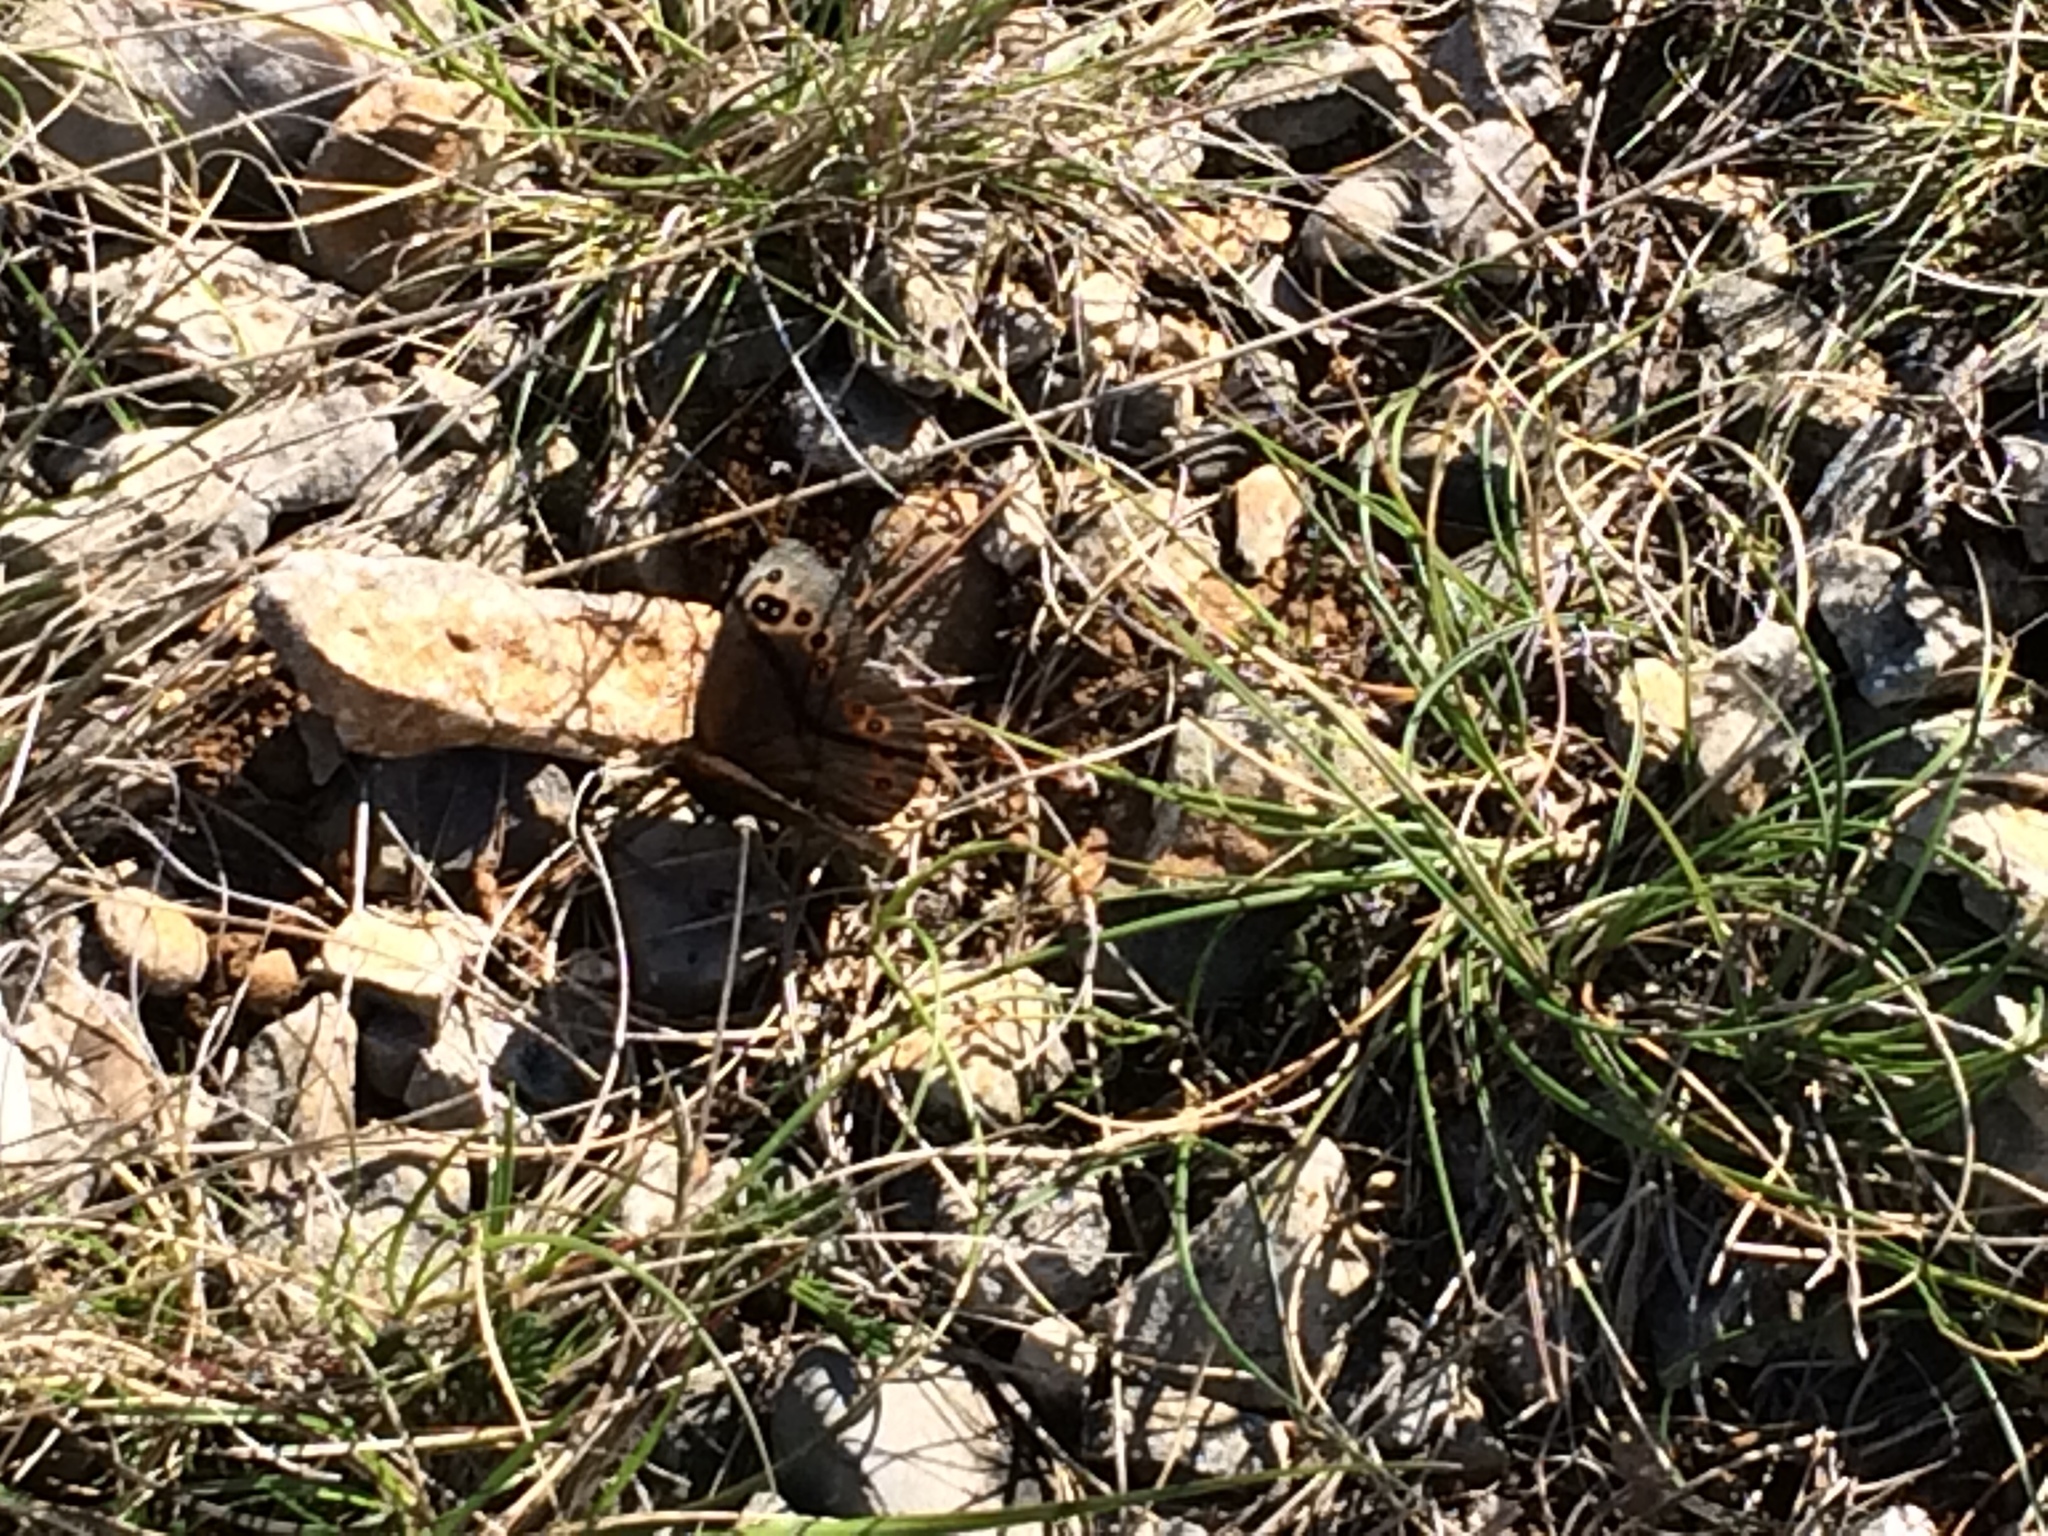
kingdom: Animalia
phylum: Arthropoda
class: Insecta
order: Lepidoptera
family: Nymphalidae
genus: Proterebia
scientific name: Proterebia afra
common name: Dalmatian ringlet
